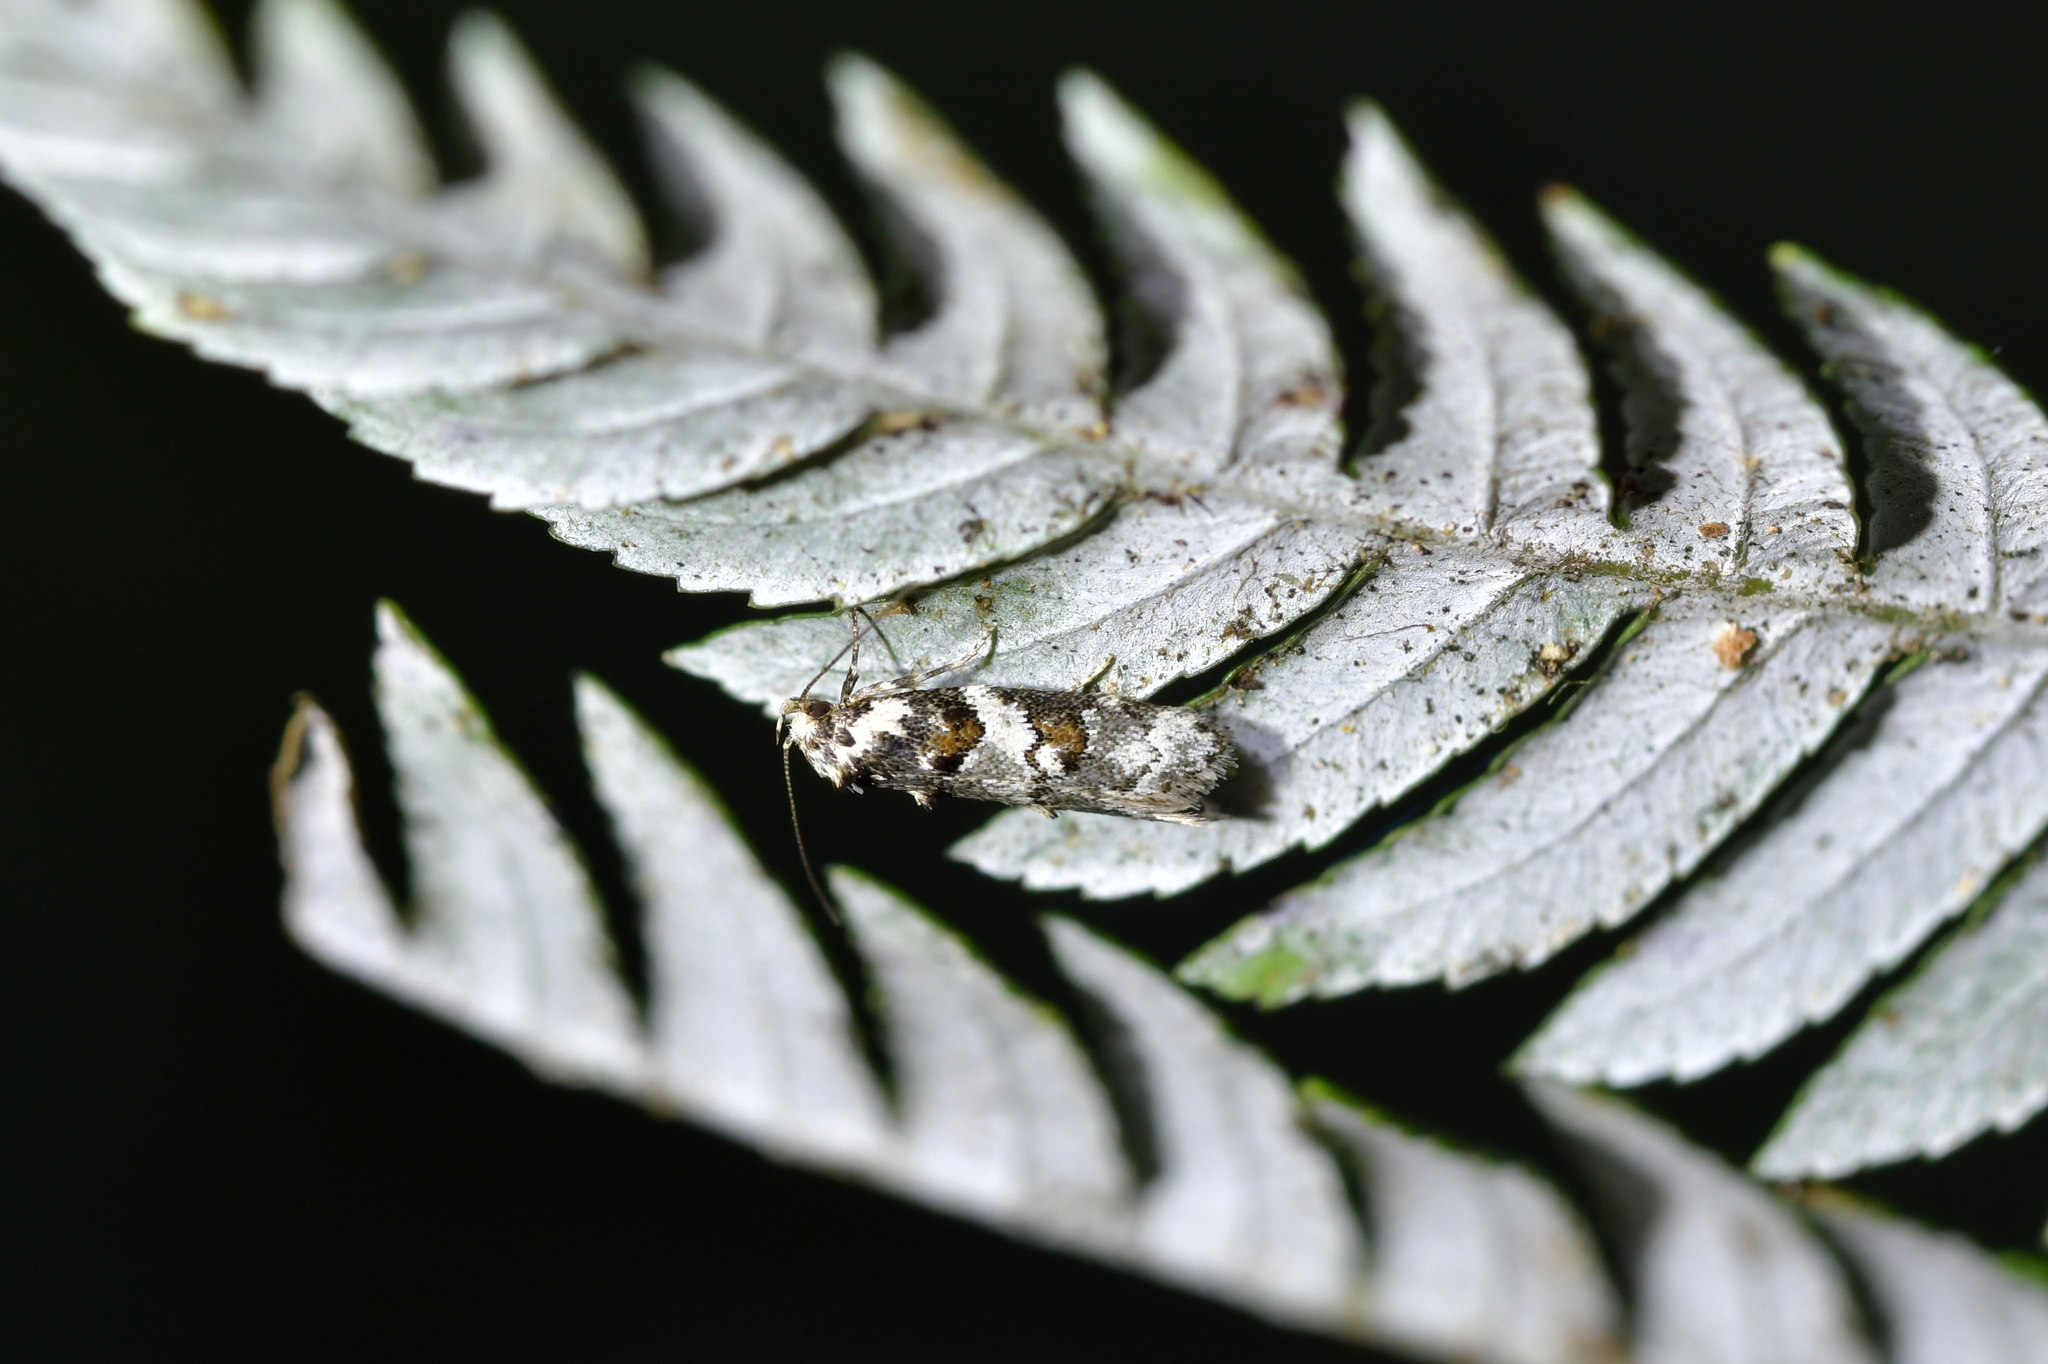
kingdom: Animalia
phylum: Arthropoda
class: Insecta
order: Lepidoptera
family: Oecophoridae
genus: Trachypepla
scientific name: Trachypepla galaxias
